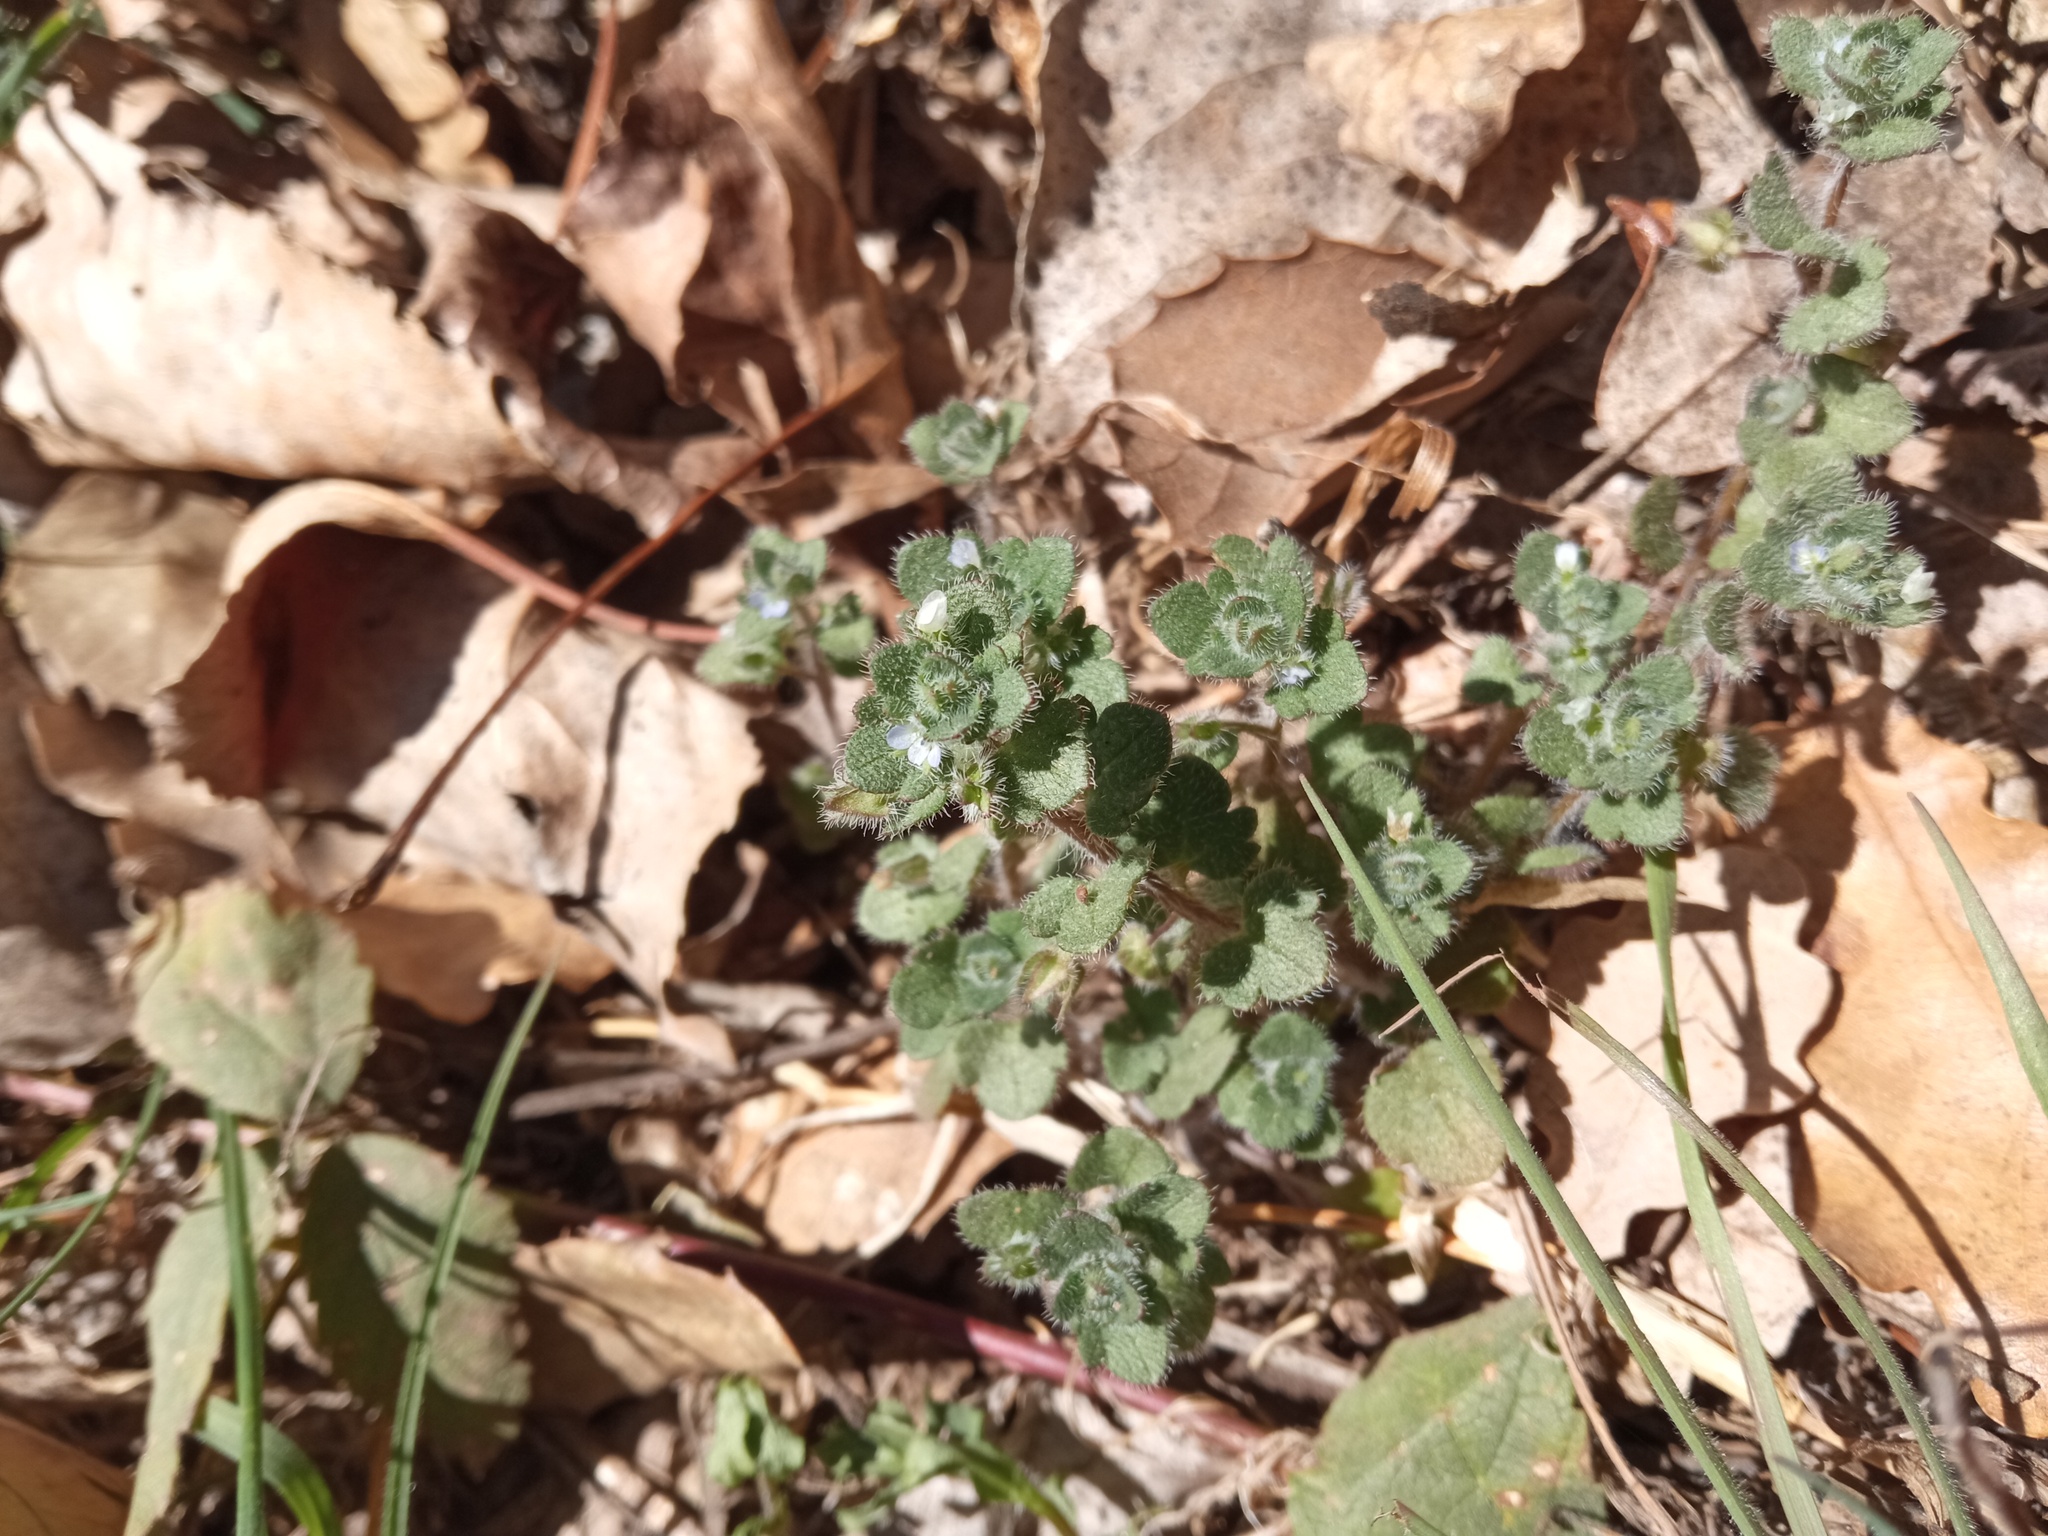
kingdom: Plantae
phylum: Tracheophyta
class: Magnoliopsida
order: Lamiales
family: Plantaginaceae
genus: Veronica
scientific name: Veronica hederifolia
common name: Ivy-leaved speedwell
